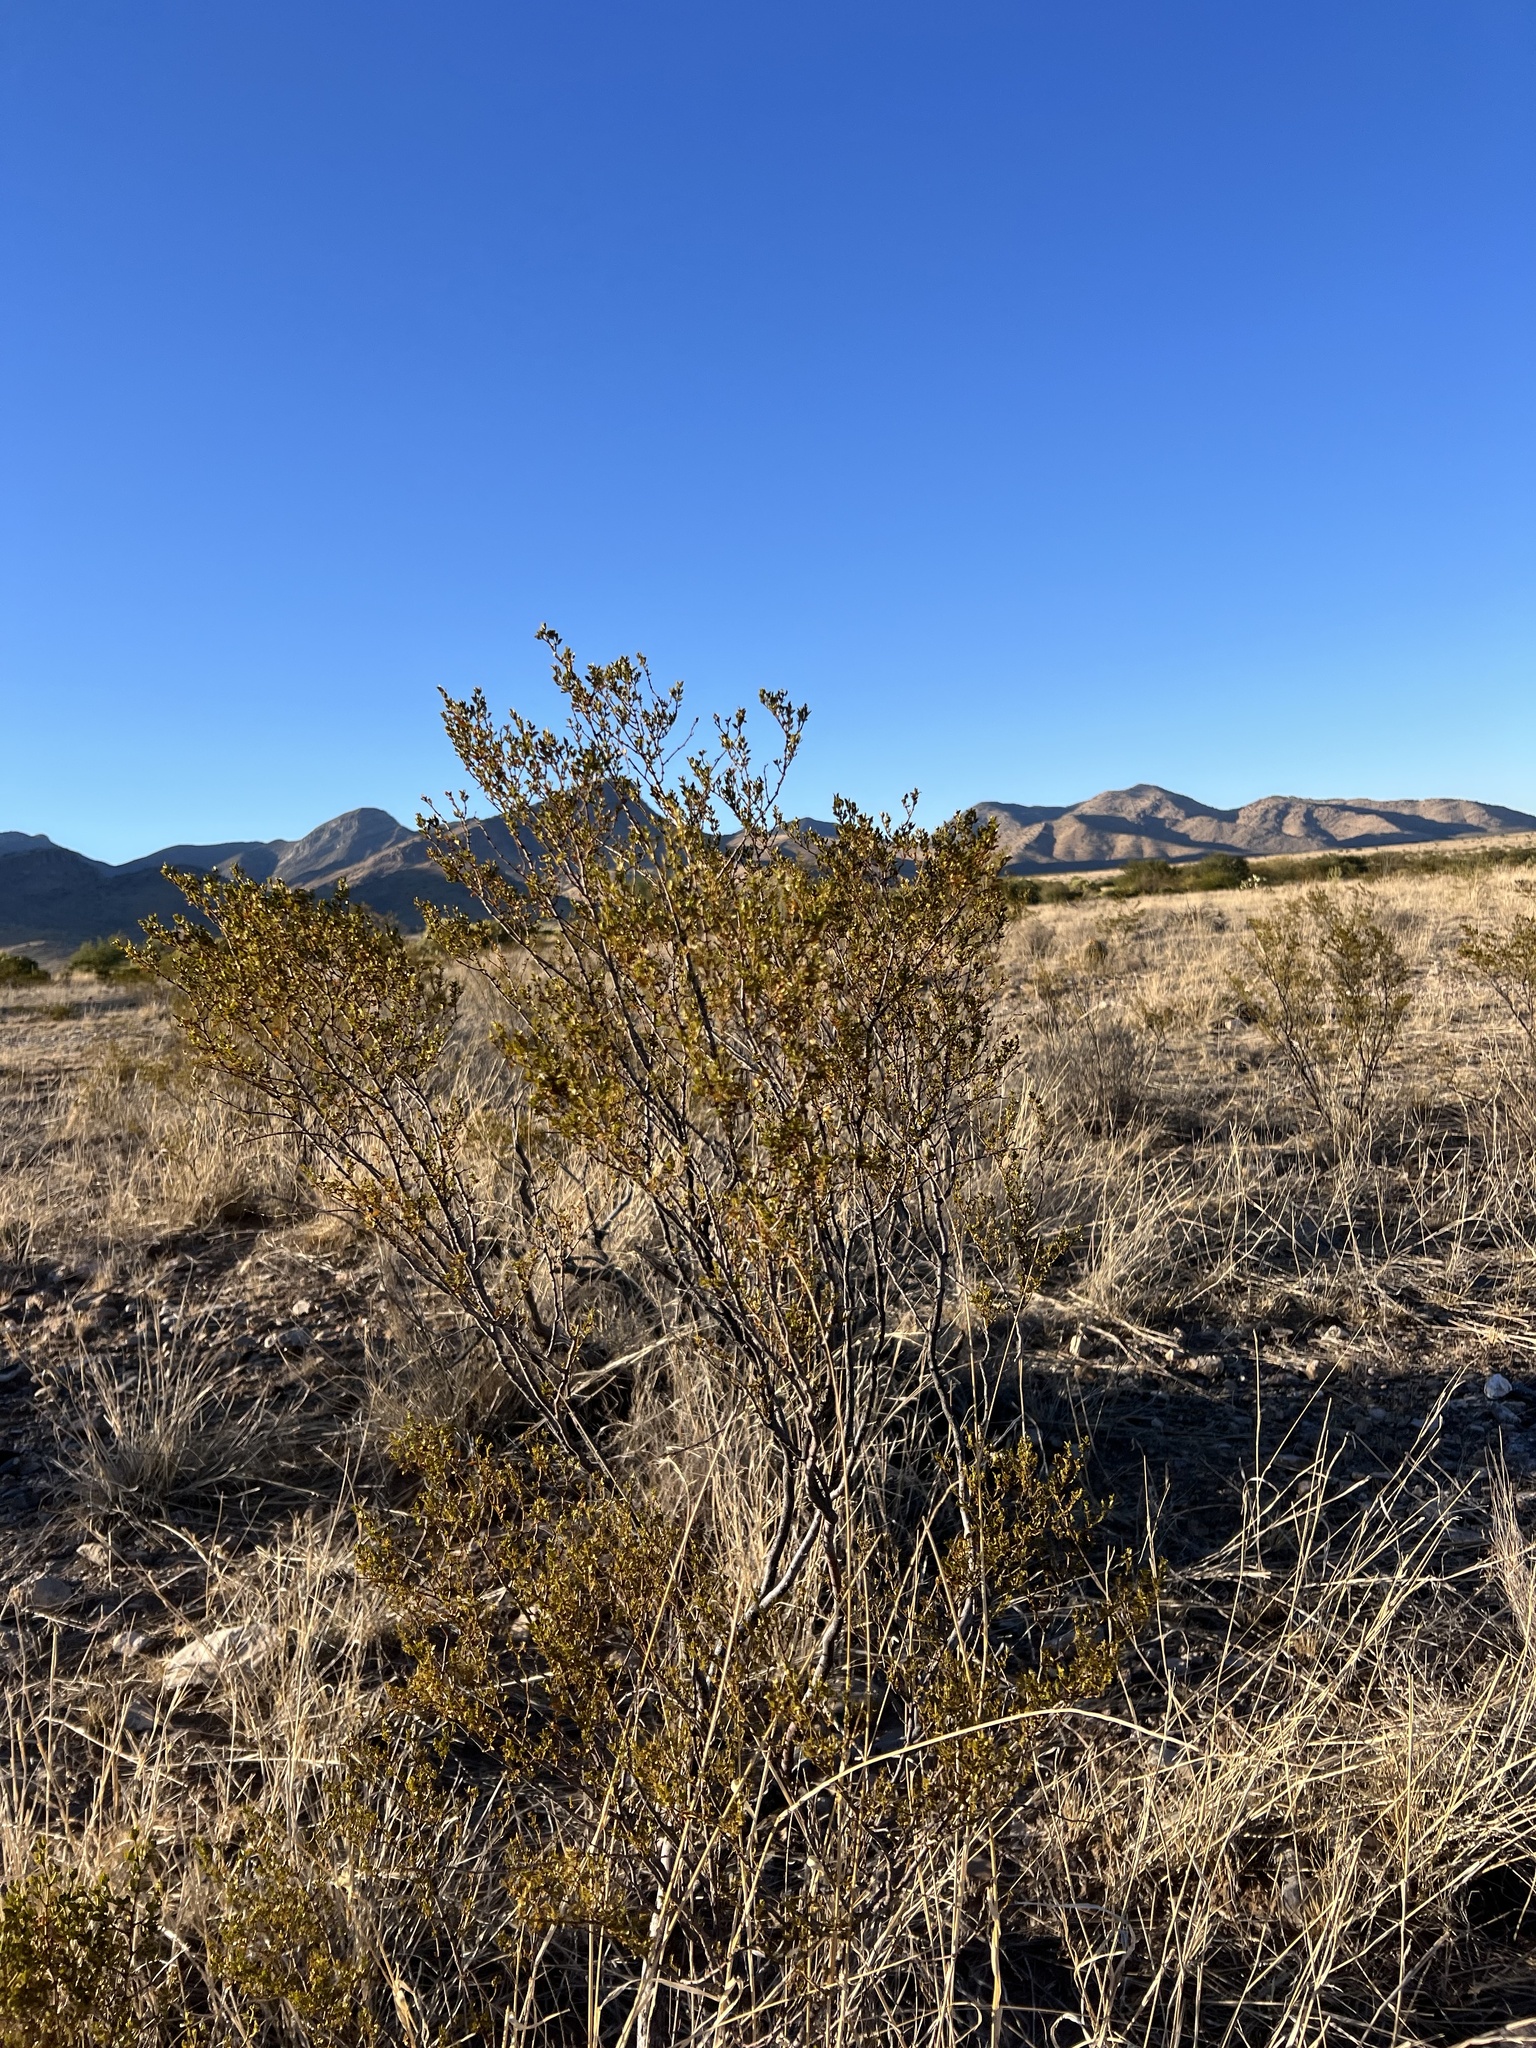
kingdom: Plantae
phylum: Tracheophyta
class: Magnoliopsida
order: Zygophyllales
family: Zygophyllaceae
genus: Larrea
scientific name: Larrea tridentata
